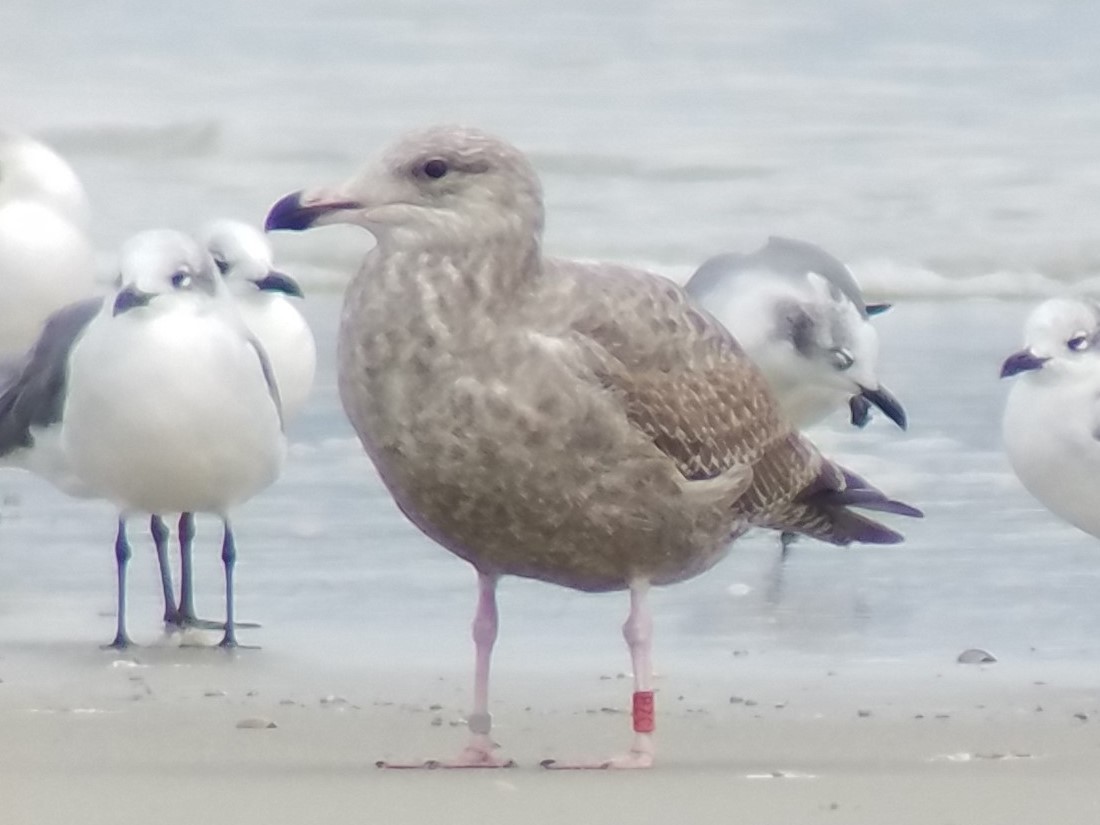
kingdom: Animalia
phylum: Chordata
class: Aves
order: Charadriiformes
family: Laridae
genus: Larus
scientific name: Larus argentatus
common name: Herring gull
